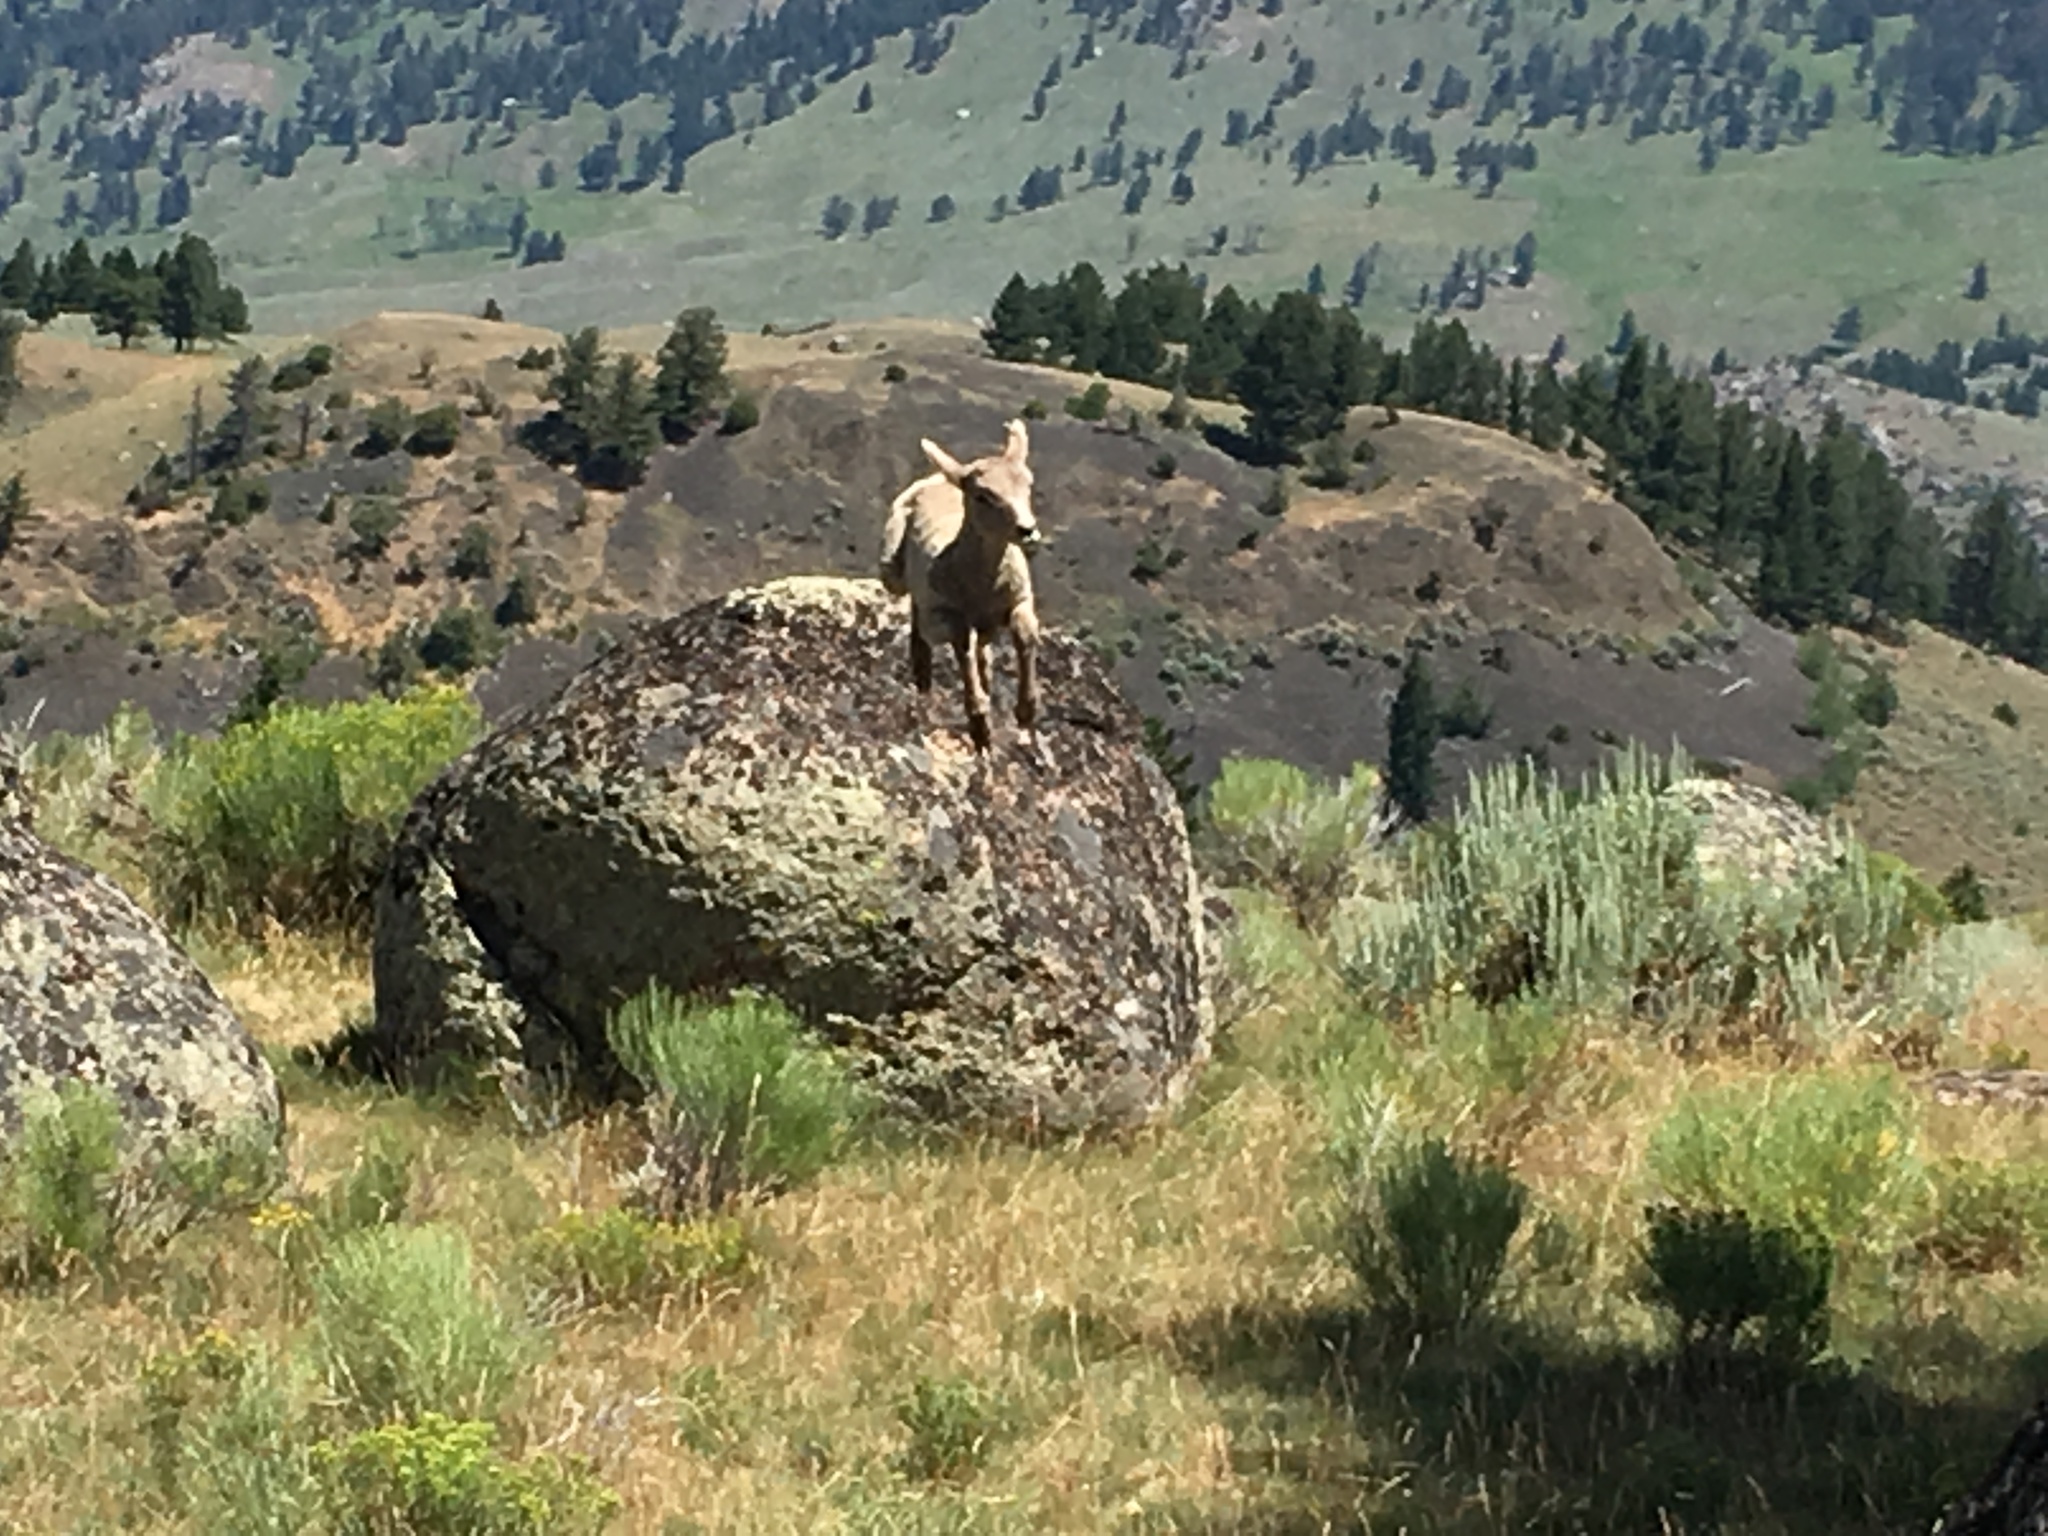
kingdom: Animalia
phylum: Chordata
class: Mammalia
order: Artiodactyla
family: Bovidae
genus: Ovis
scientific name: Ovis canadensis
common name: Bighorn sheep
